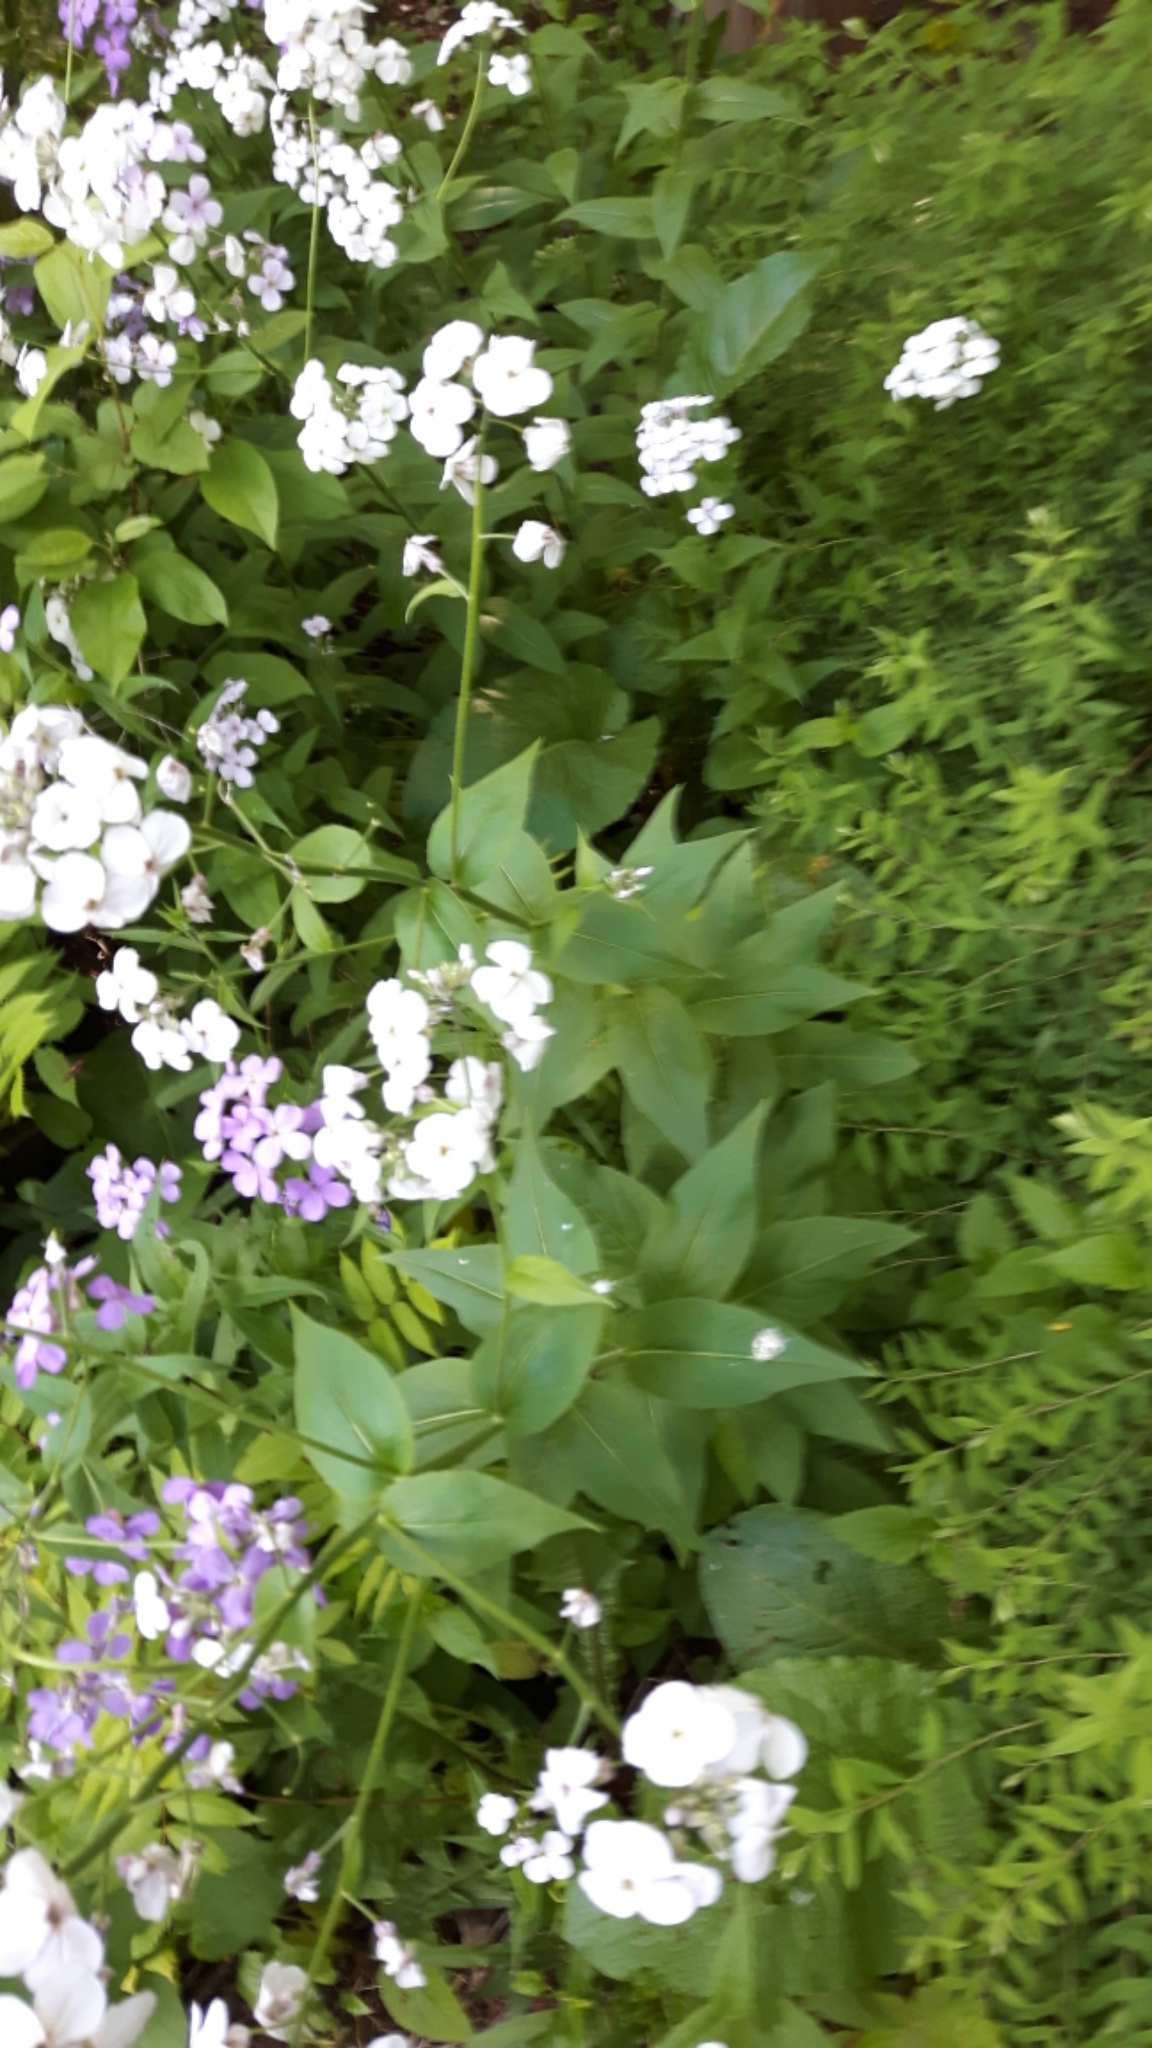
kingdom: Plantae
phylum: Tracheophyta
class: Magnoliopsida
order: Brassicales
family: Brassicaceae
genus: Hesperis
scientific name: Hesperis matronalis
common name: Dame's-violet
